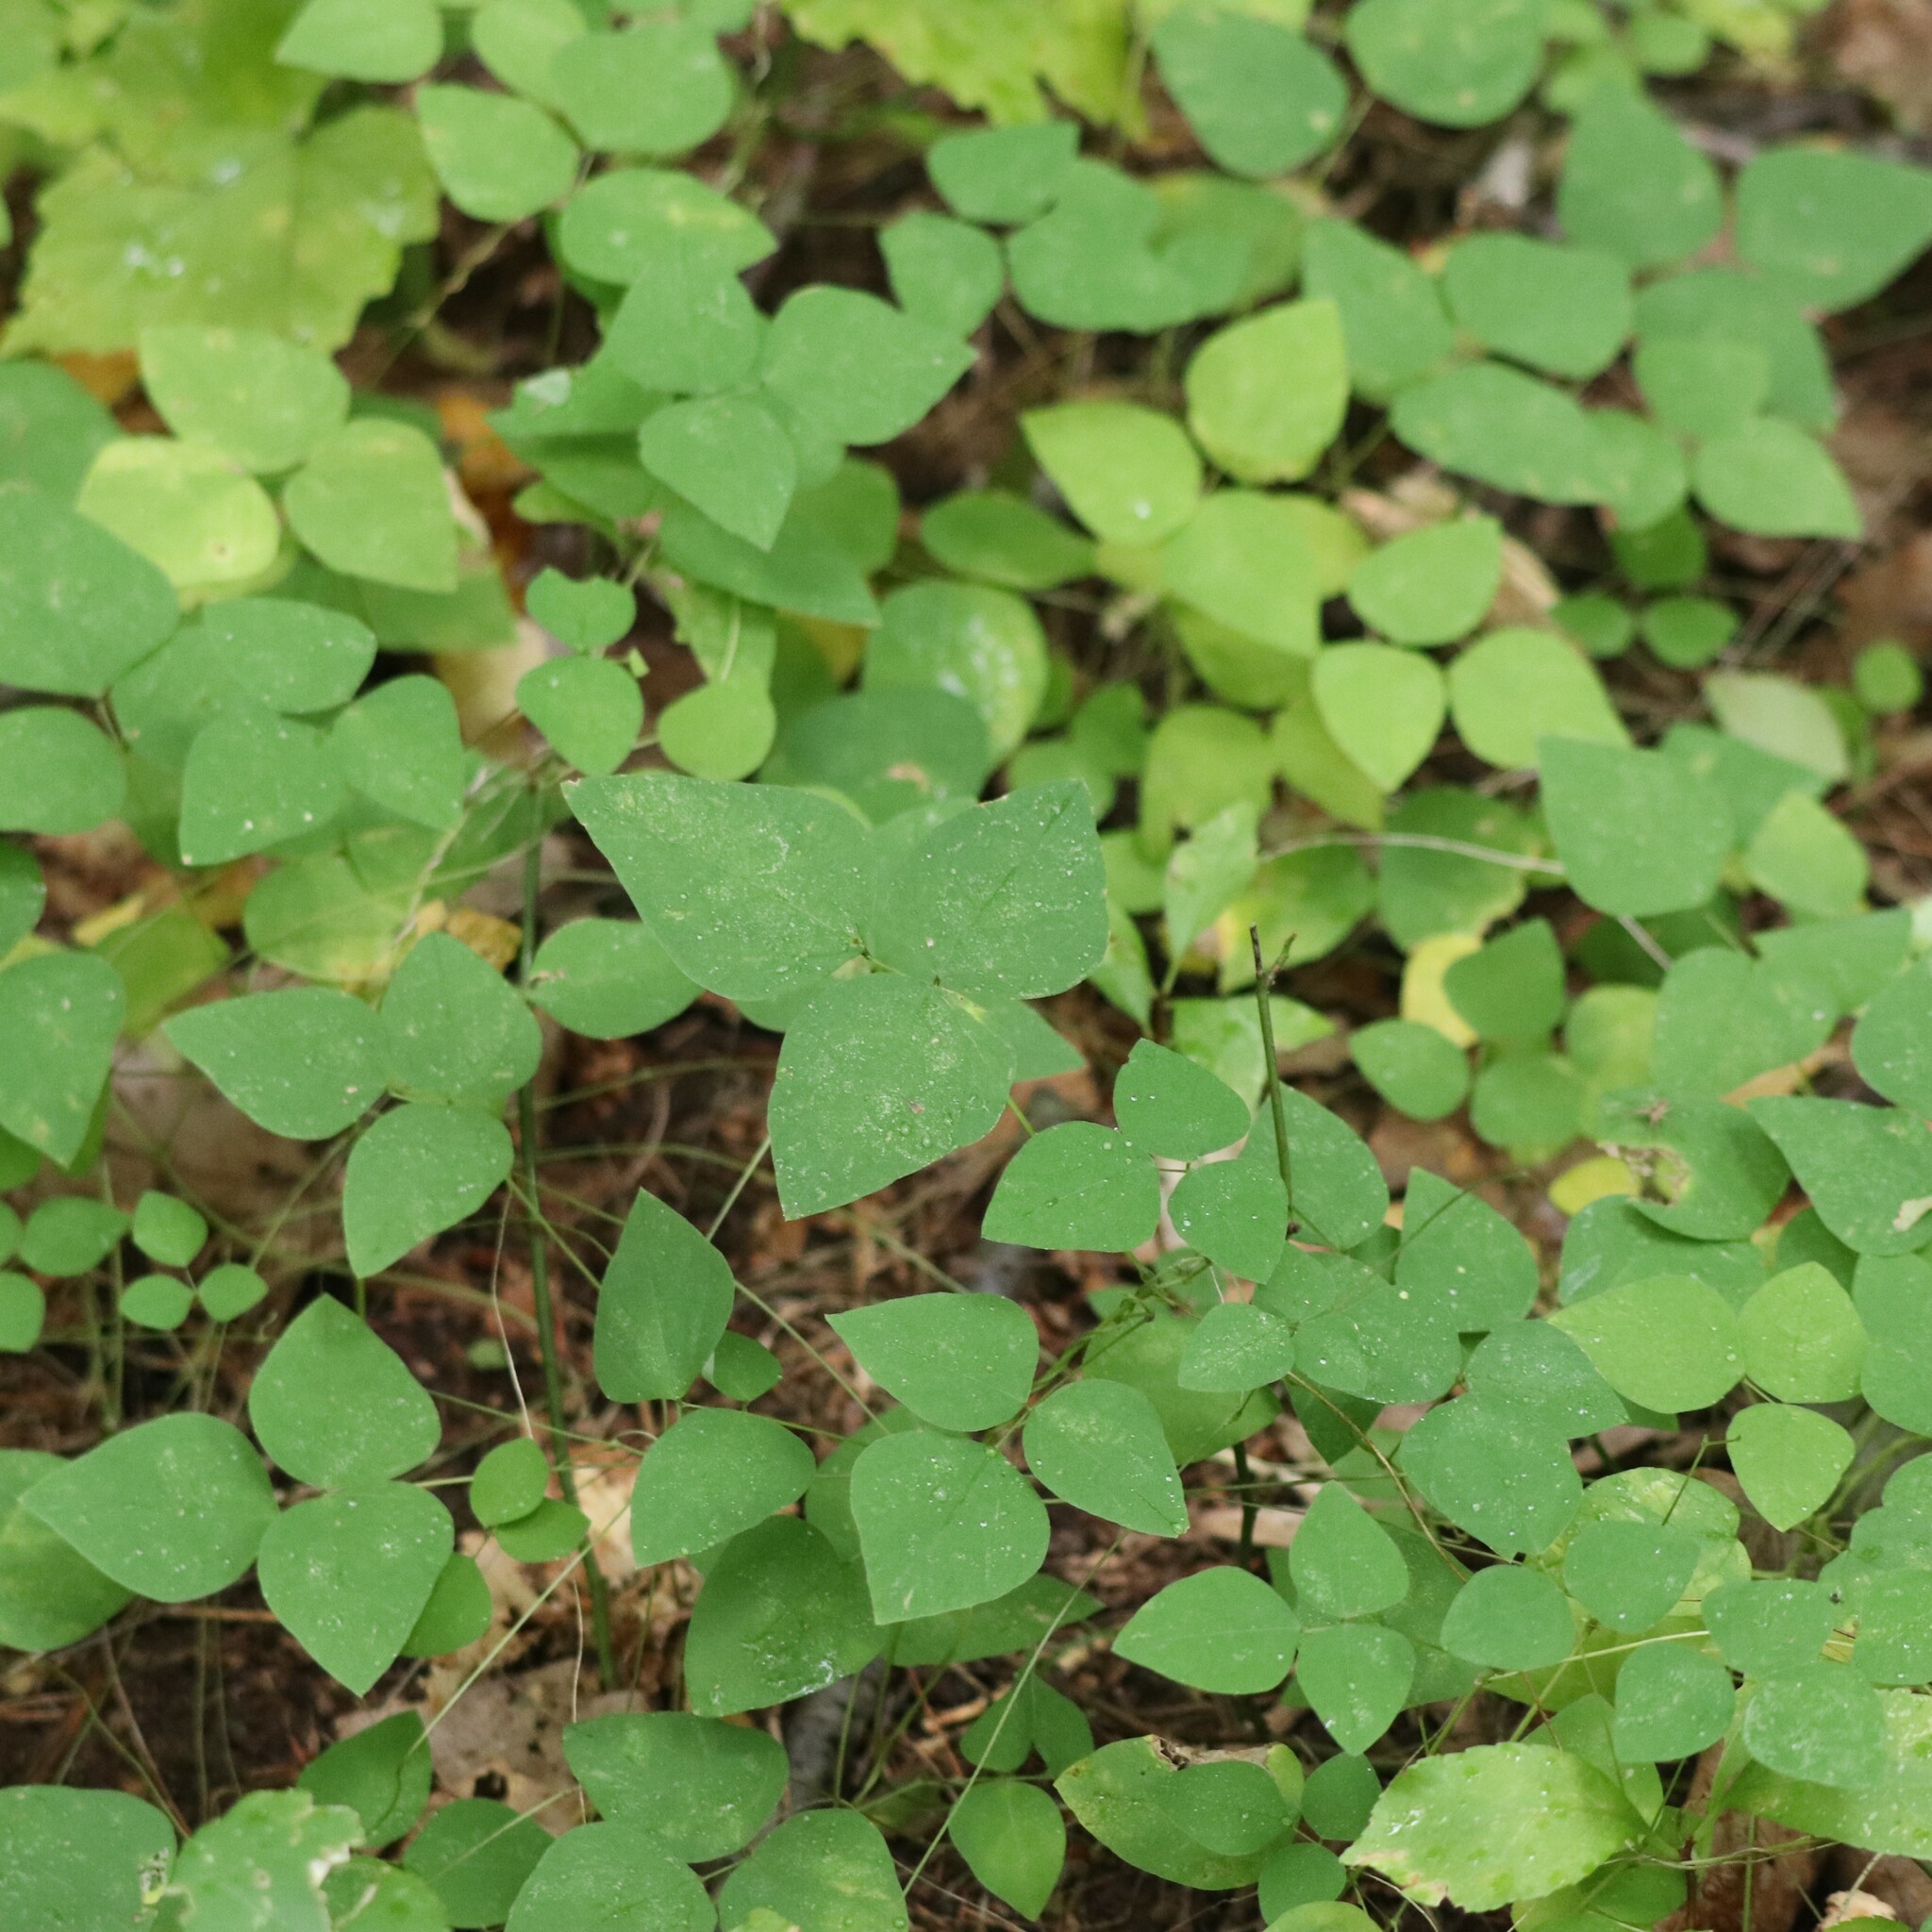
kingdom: Plantae
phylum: Tracheophyta
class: Magnoliopsida
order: Fabales
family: Fabaceae
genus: Amphicarpaea
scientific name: Amphicarpaea bracteata
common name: American hog peanut
